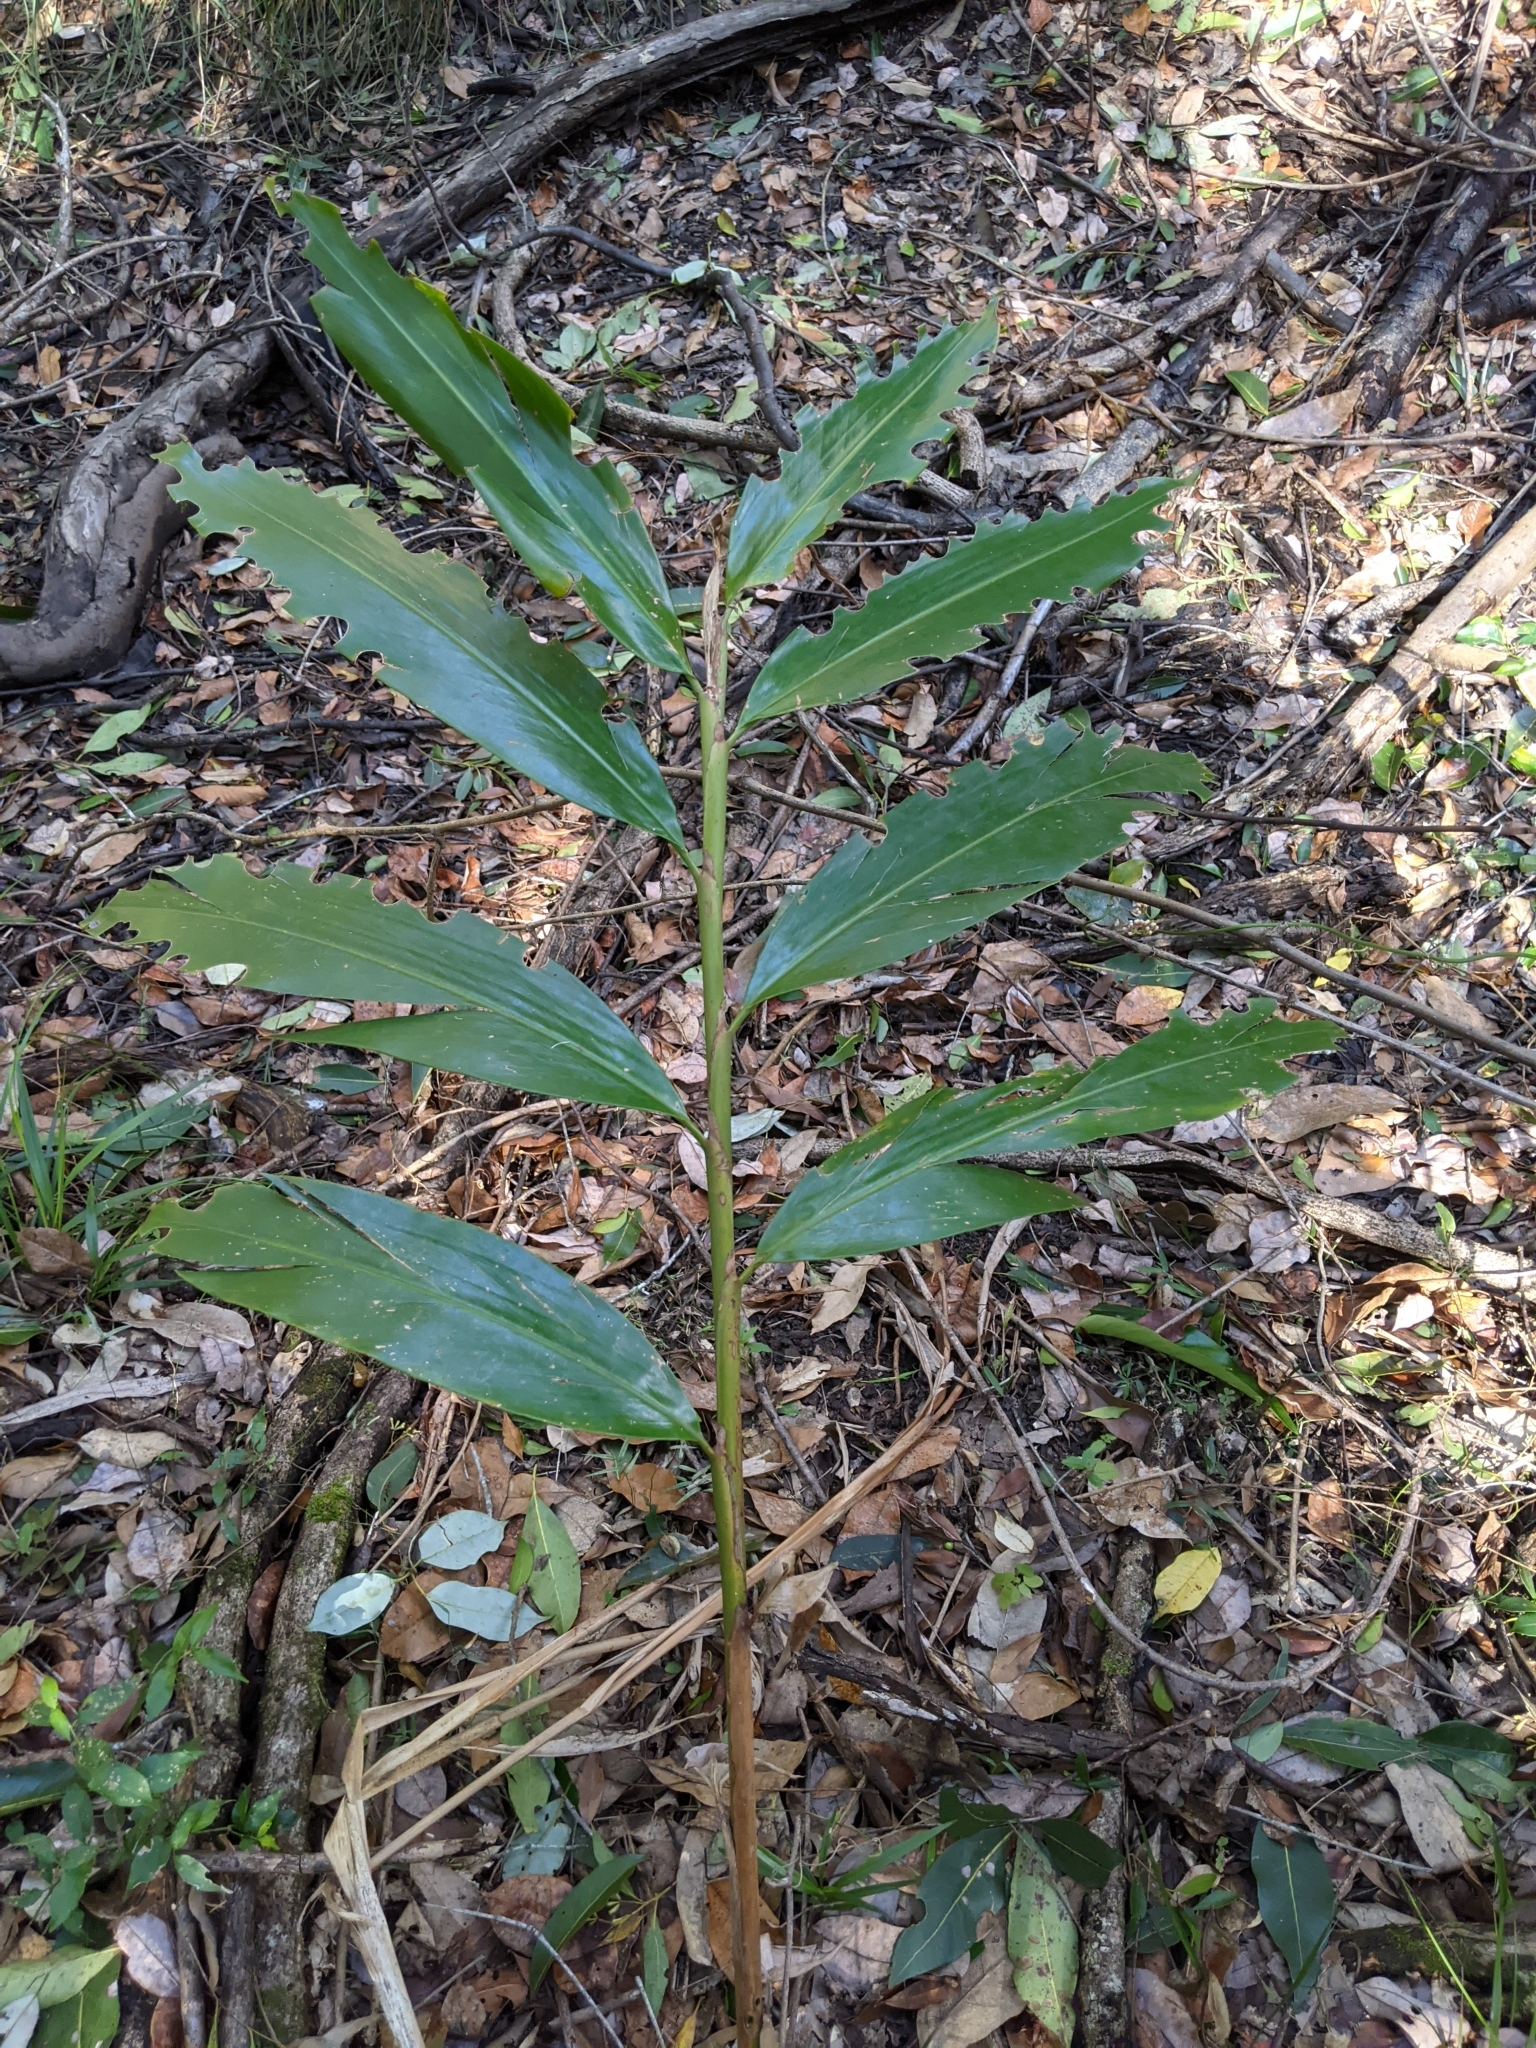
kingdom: Plantae
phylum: Tracheophyta
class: Liliopsida
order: Zingiberales
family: Zingiberaceae
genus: Alpinia
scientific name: Alpinia caerulea
